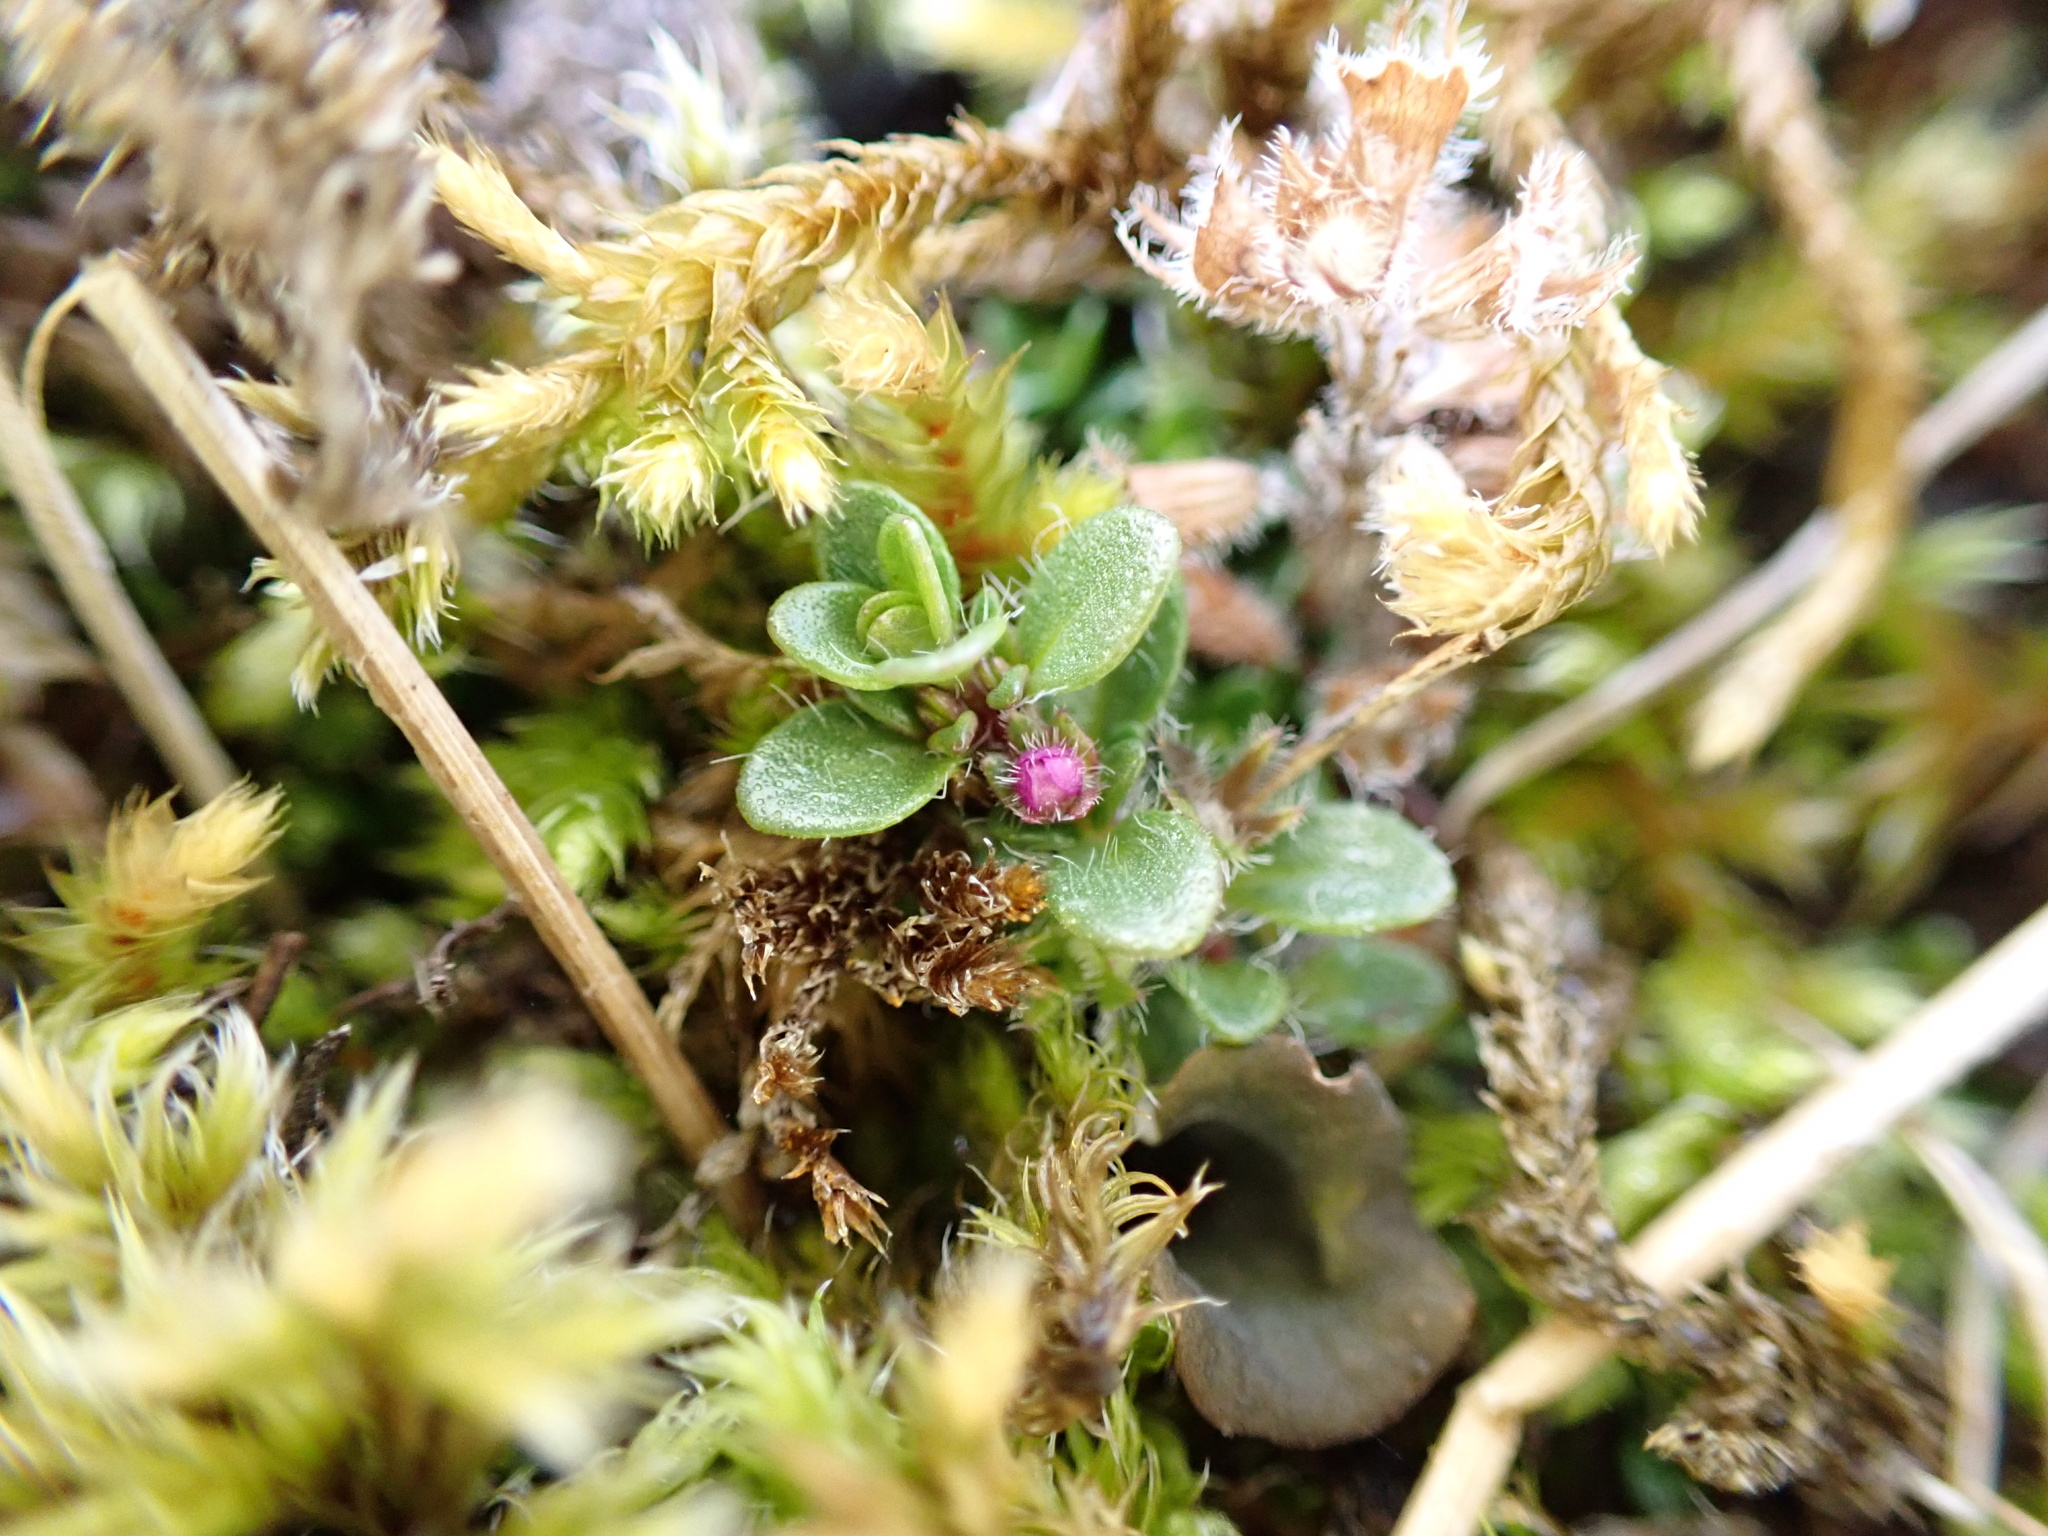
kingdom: Plantae
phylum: Tracheophyta
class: Magnoliopsida
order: Lamiales
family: Lamiaceae
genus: Thymus
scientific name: Thymus praecox
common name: Wild thyme
